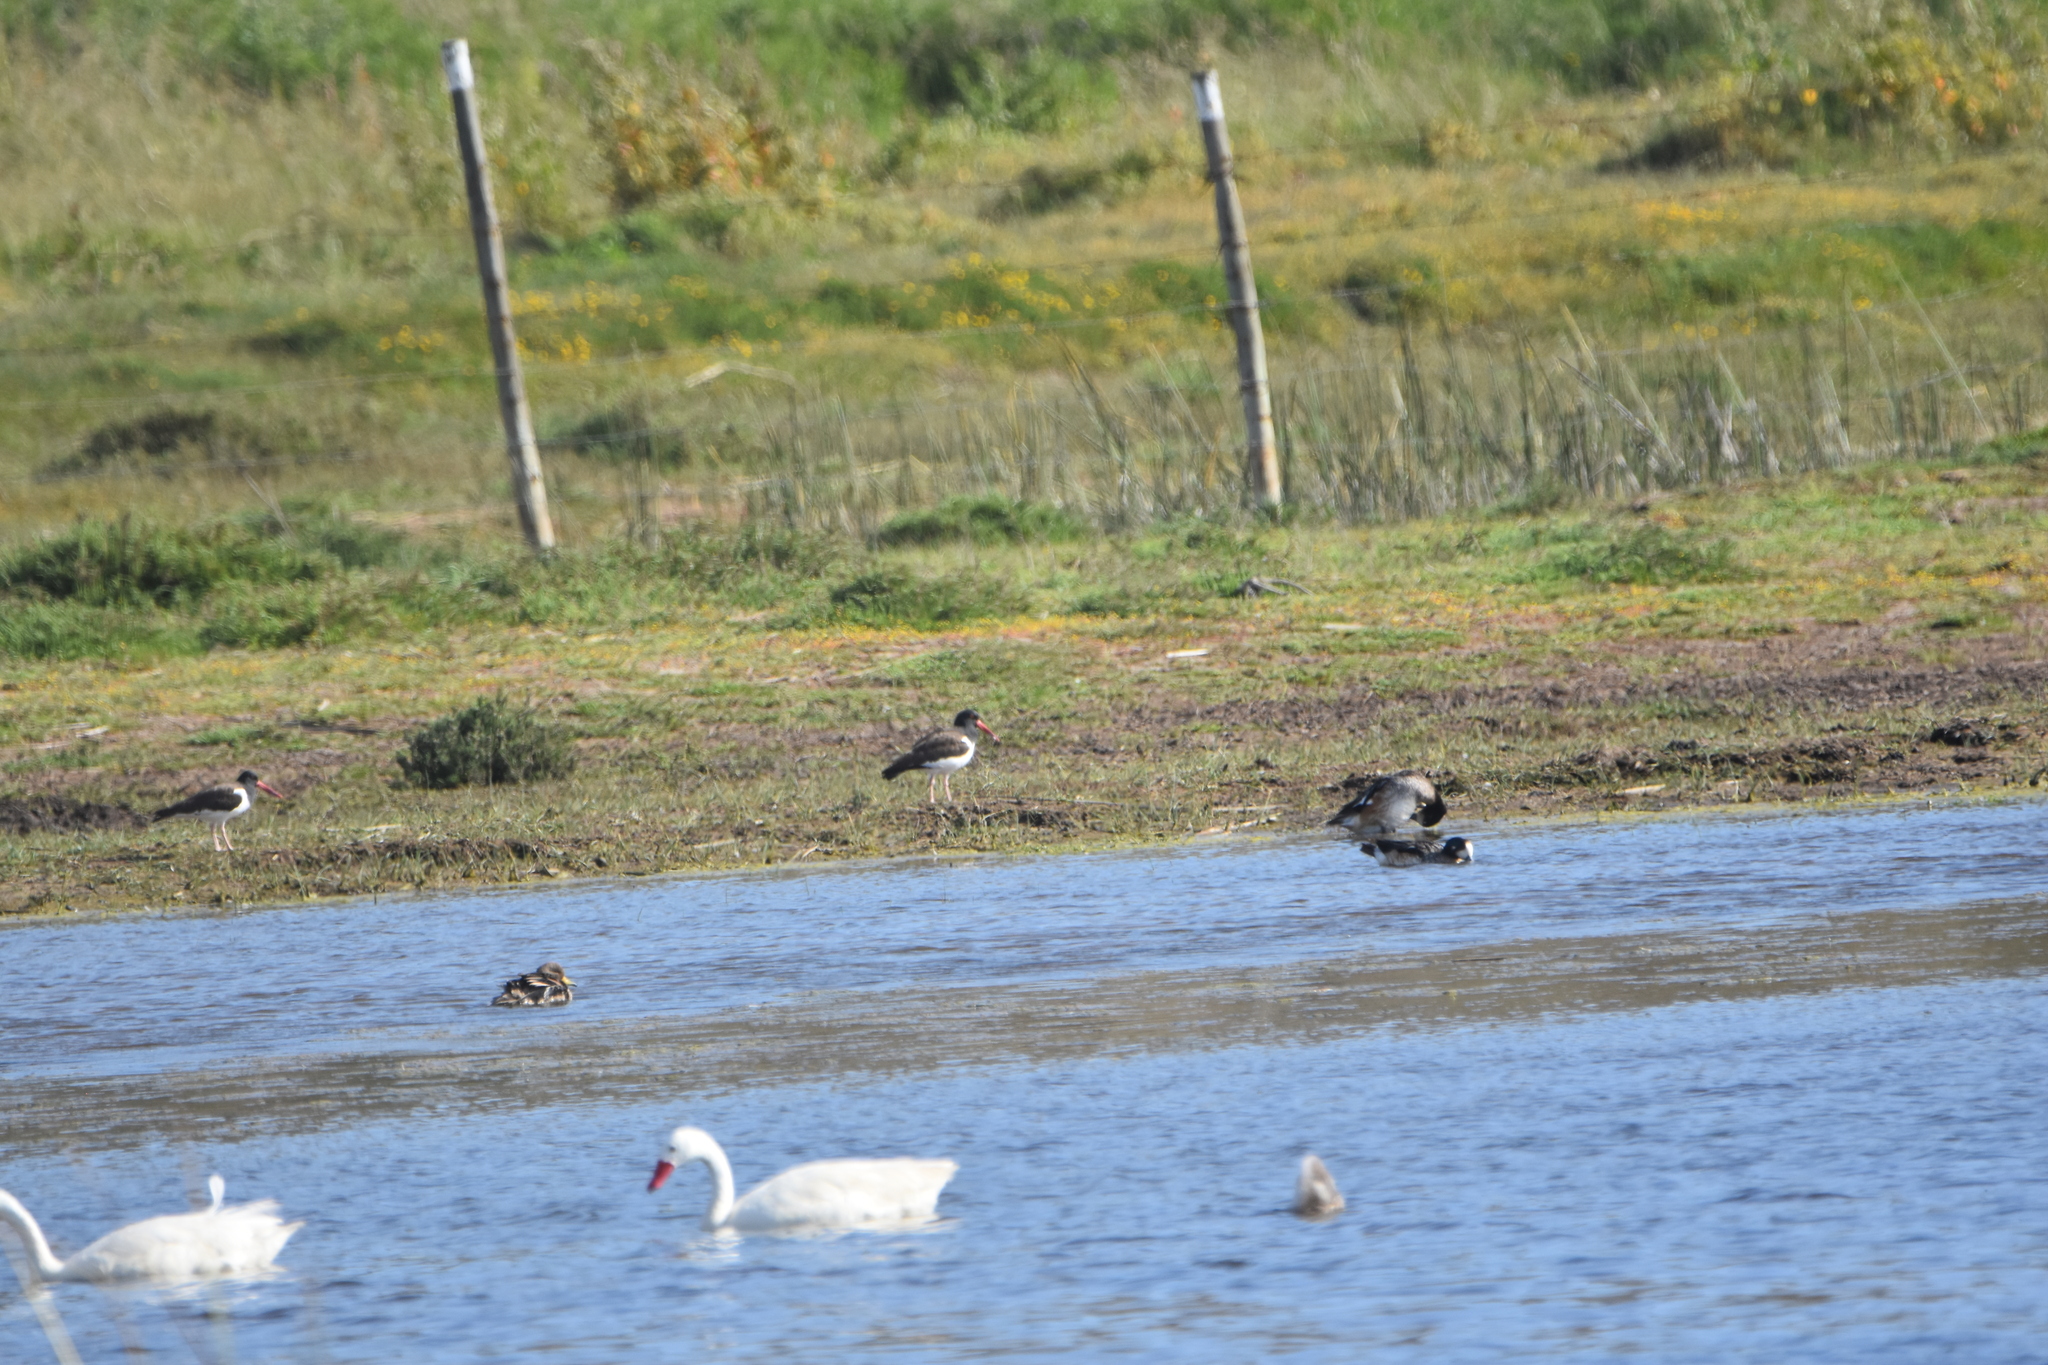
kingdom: Animalia
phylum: Chordata
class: Aves
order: Charadriiformes
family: Haematopodidae
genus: Haematopus
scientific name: Haematopus palliatus
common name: American oystercatcher
